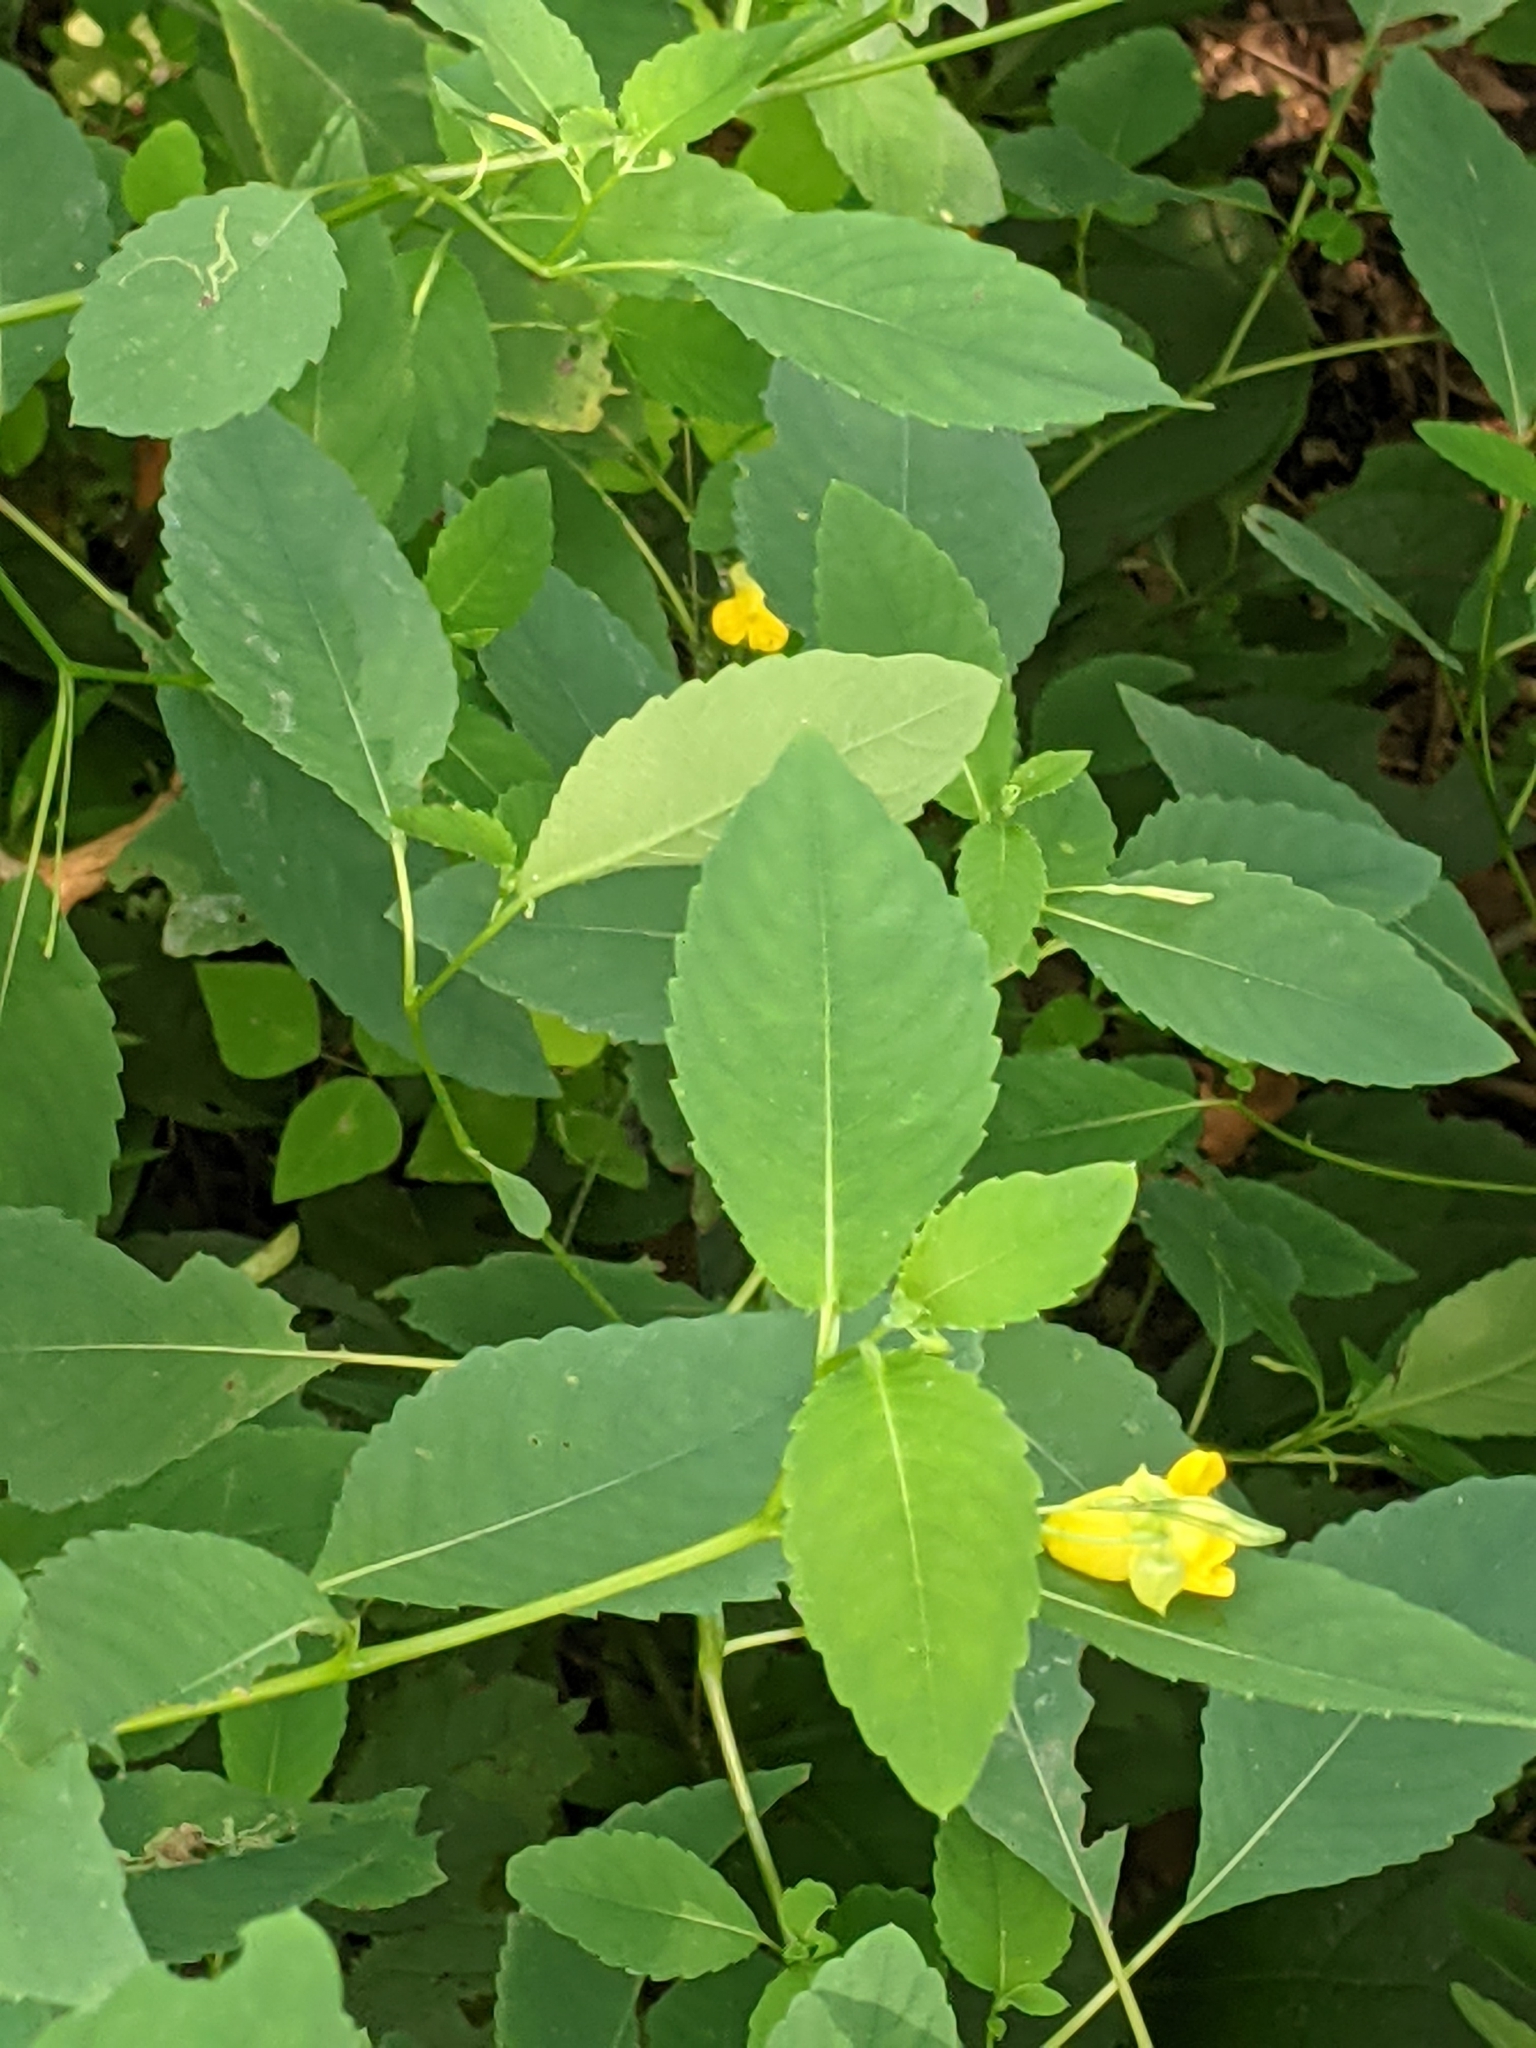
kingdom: Plantae
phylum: Tracheophyta
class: Magnoliopsida
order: Ericales
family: Balsaminaceae
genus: Impatiens
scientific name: Impatiens pallida
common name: Pale snapweed
